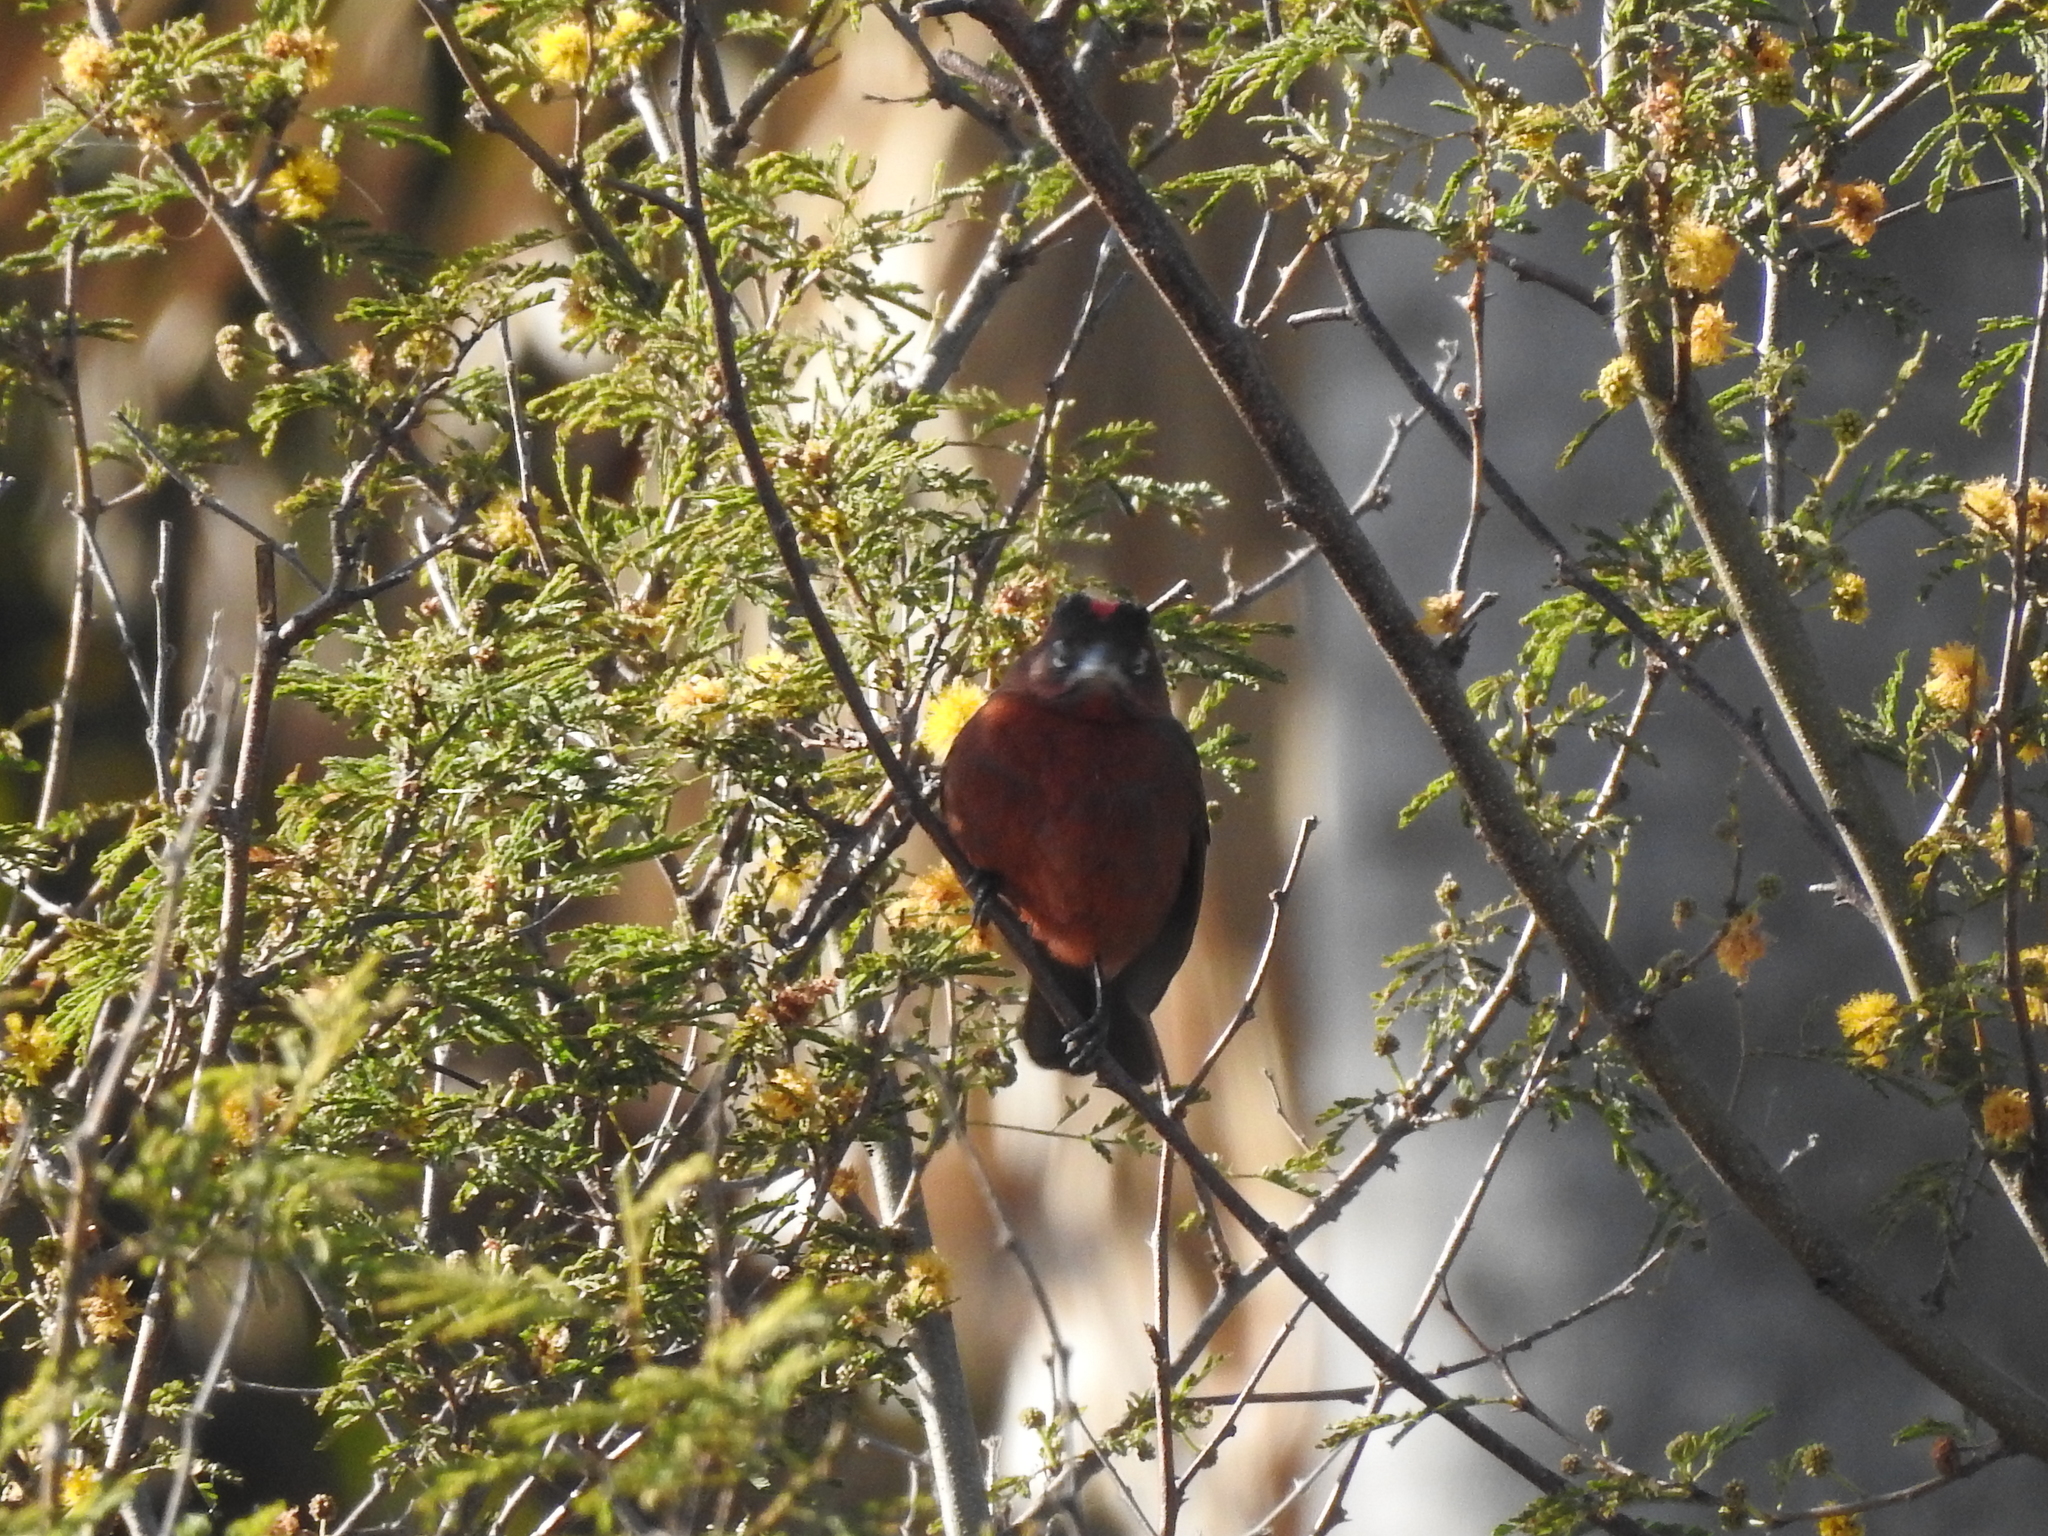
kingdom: Animalia
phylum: Chordata
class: Aves
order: Passeriformes
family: Thraupidae
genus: Coryphospingus
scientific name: Coryphospingus cucullatus
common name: Red pileated finch
